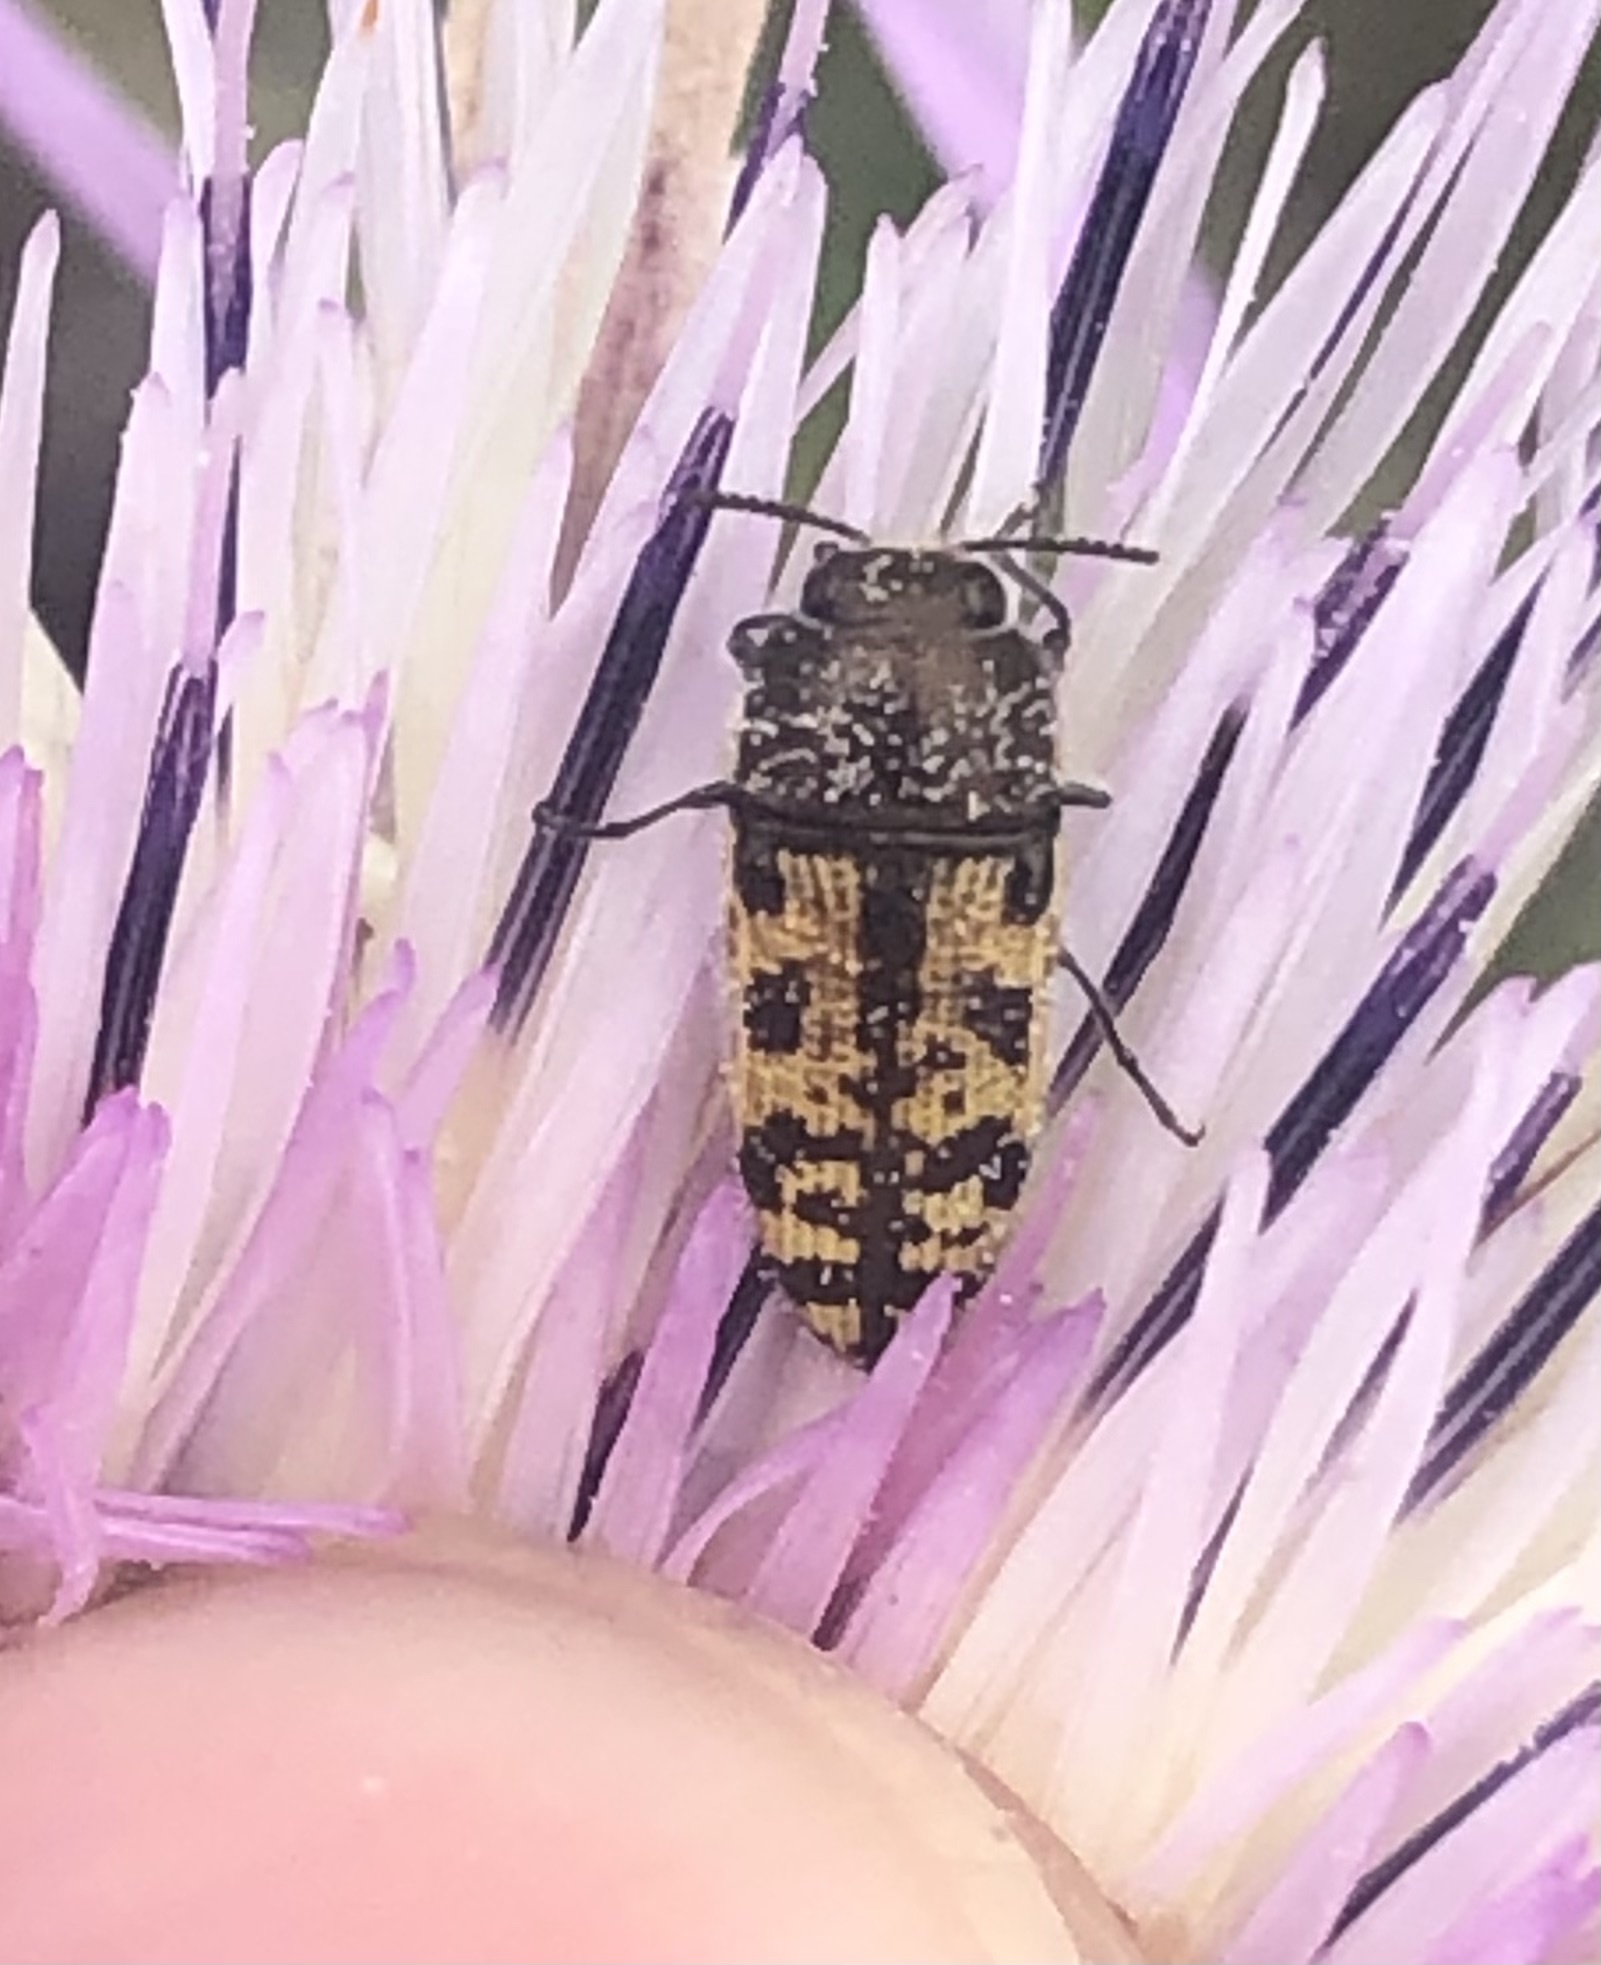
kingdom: Animalia
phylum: Arthropoda
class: Insecta
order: Coleoptera
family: Buprestidae
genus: Acmaeodera
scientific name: Acmaeodera mixta
